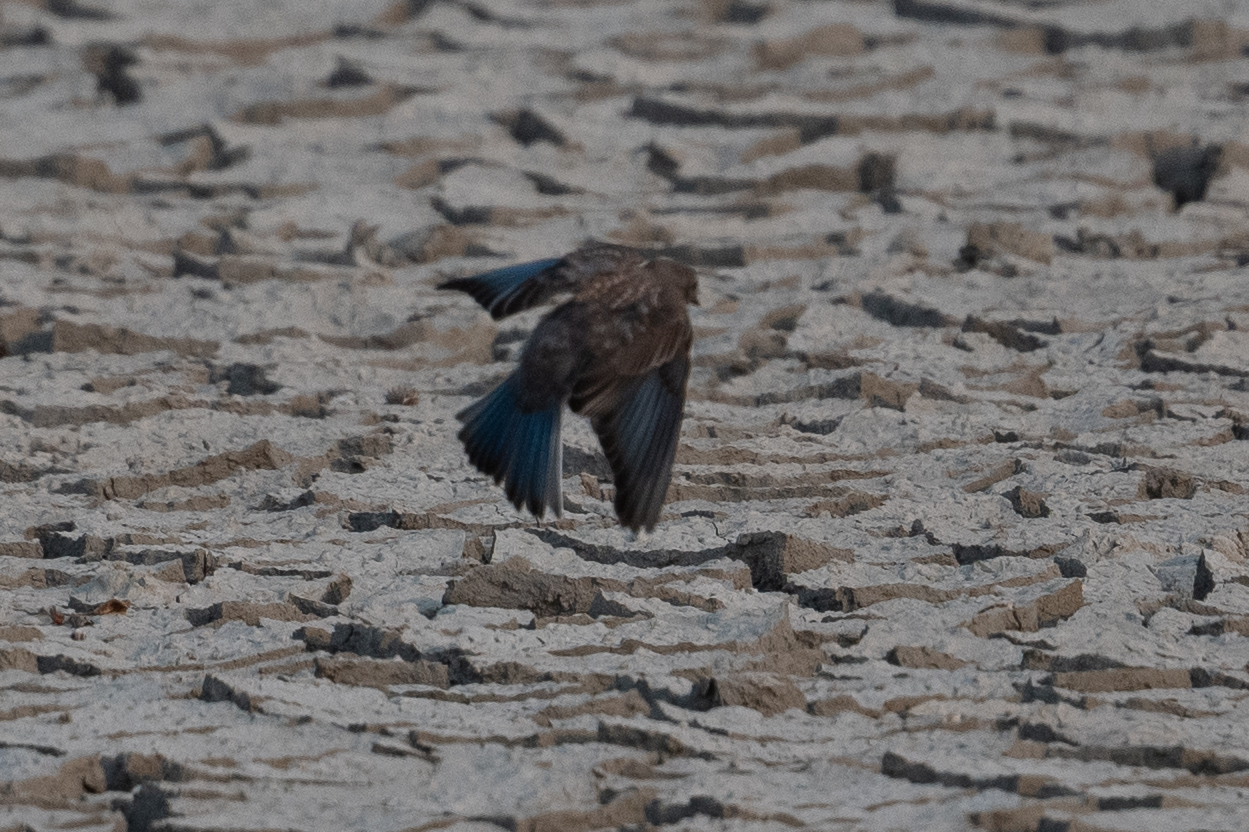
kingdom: Animalia
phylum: Chordata
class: Aves
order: Passeriformes
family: Turdidae
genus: Sialia
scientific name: Sialia mexicana
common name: Western bluebird
